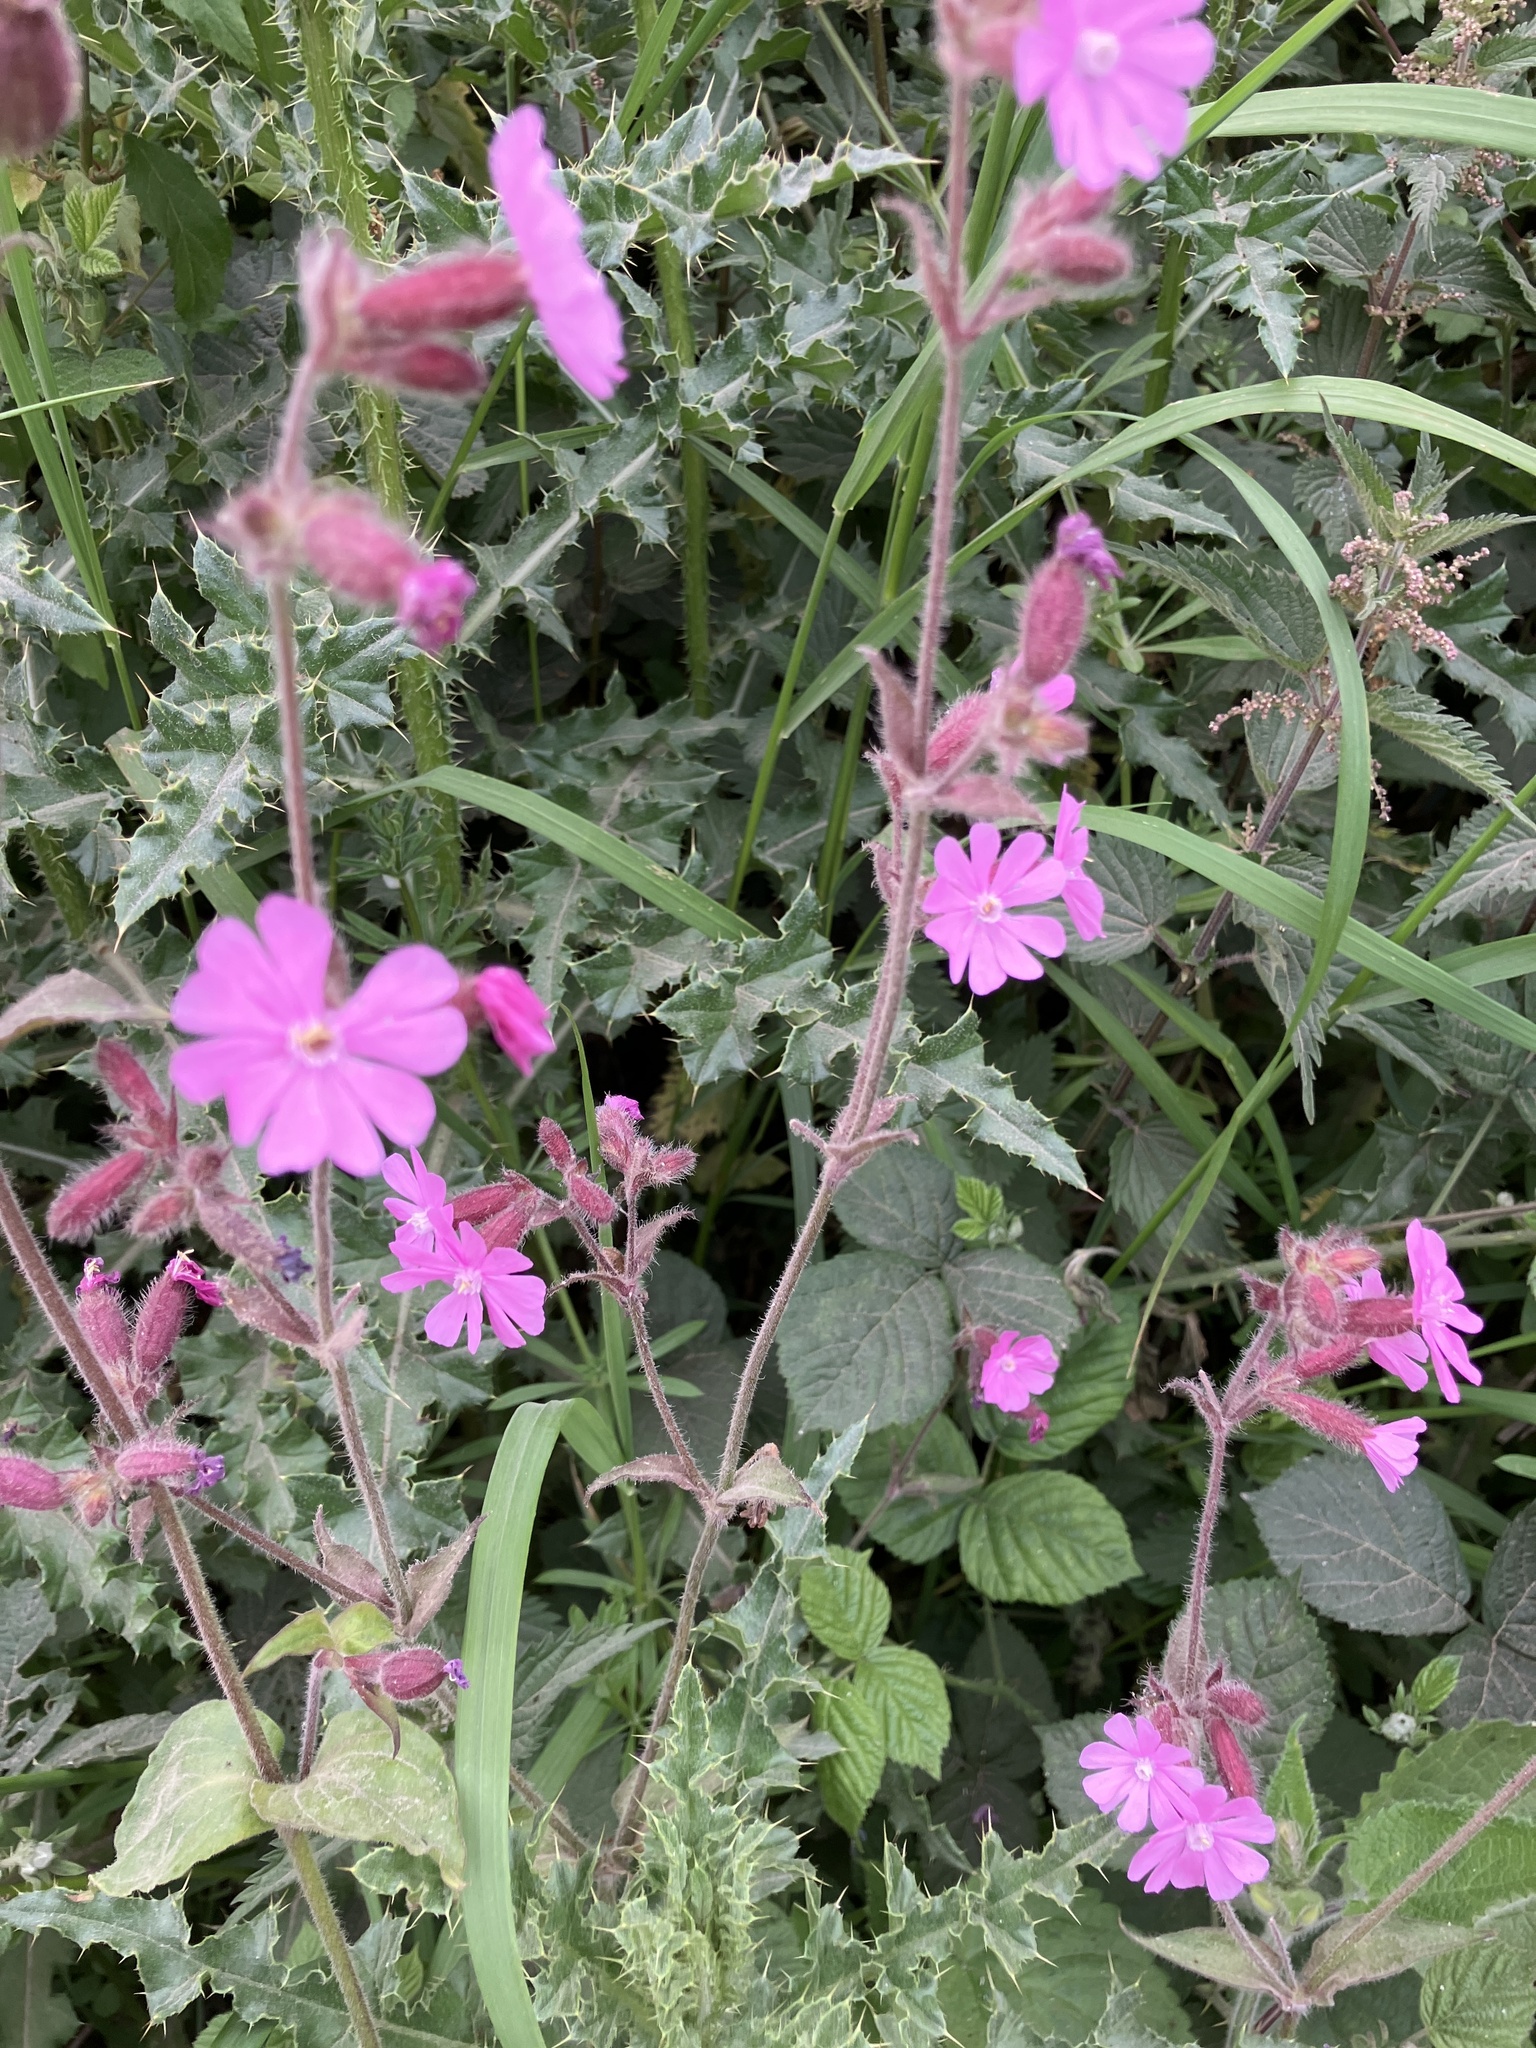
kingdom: Plantae
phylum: Tracheophyta
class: Magnoliopsida
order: Caryophyllales
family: Caryophyllaceae
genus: Silene
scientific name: Silene dioica
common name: Red campion
